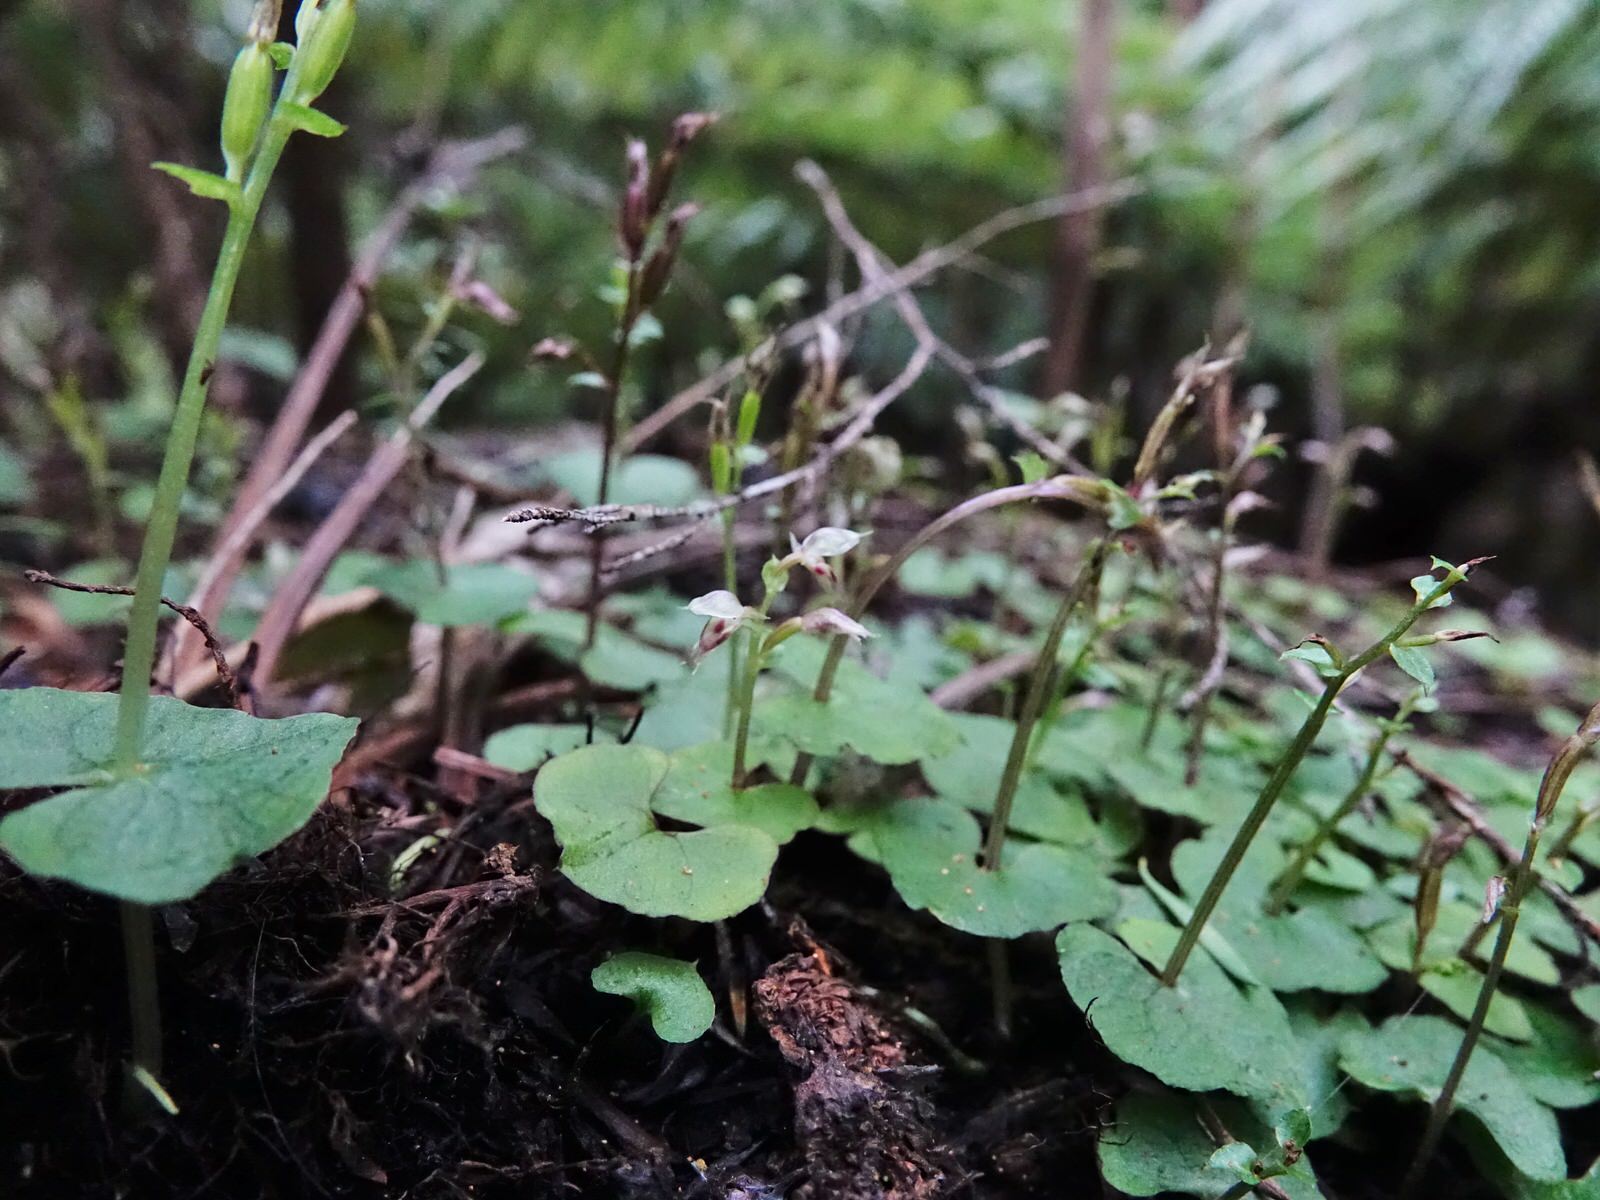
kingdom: Plantae
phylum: Tracheophyta
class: Liliopsida
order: Asparagales
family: Orchidaceae
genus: Acianthus
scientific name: Acianthus sinclairii
